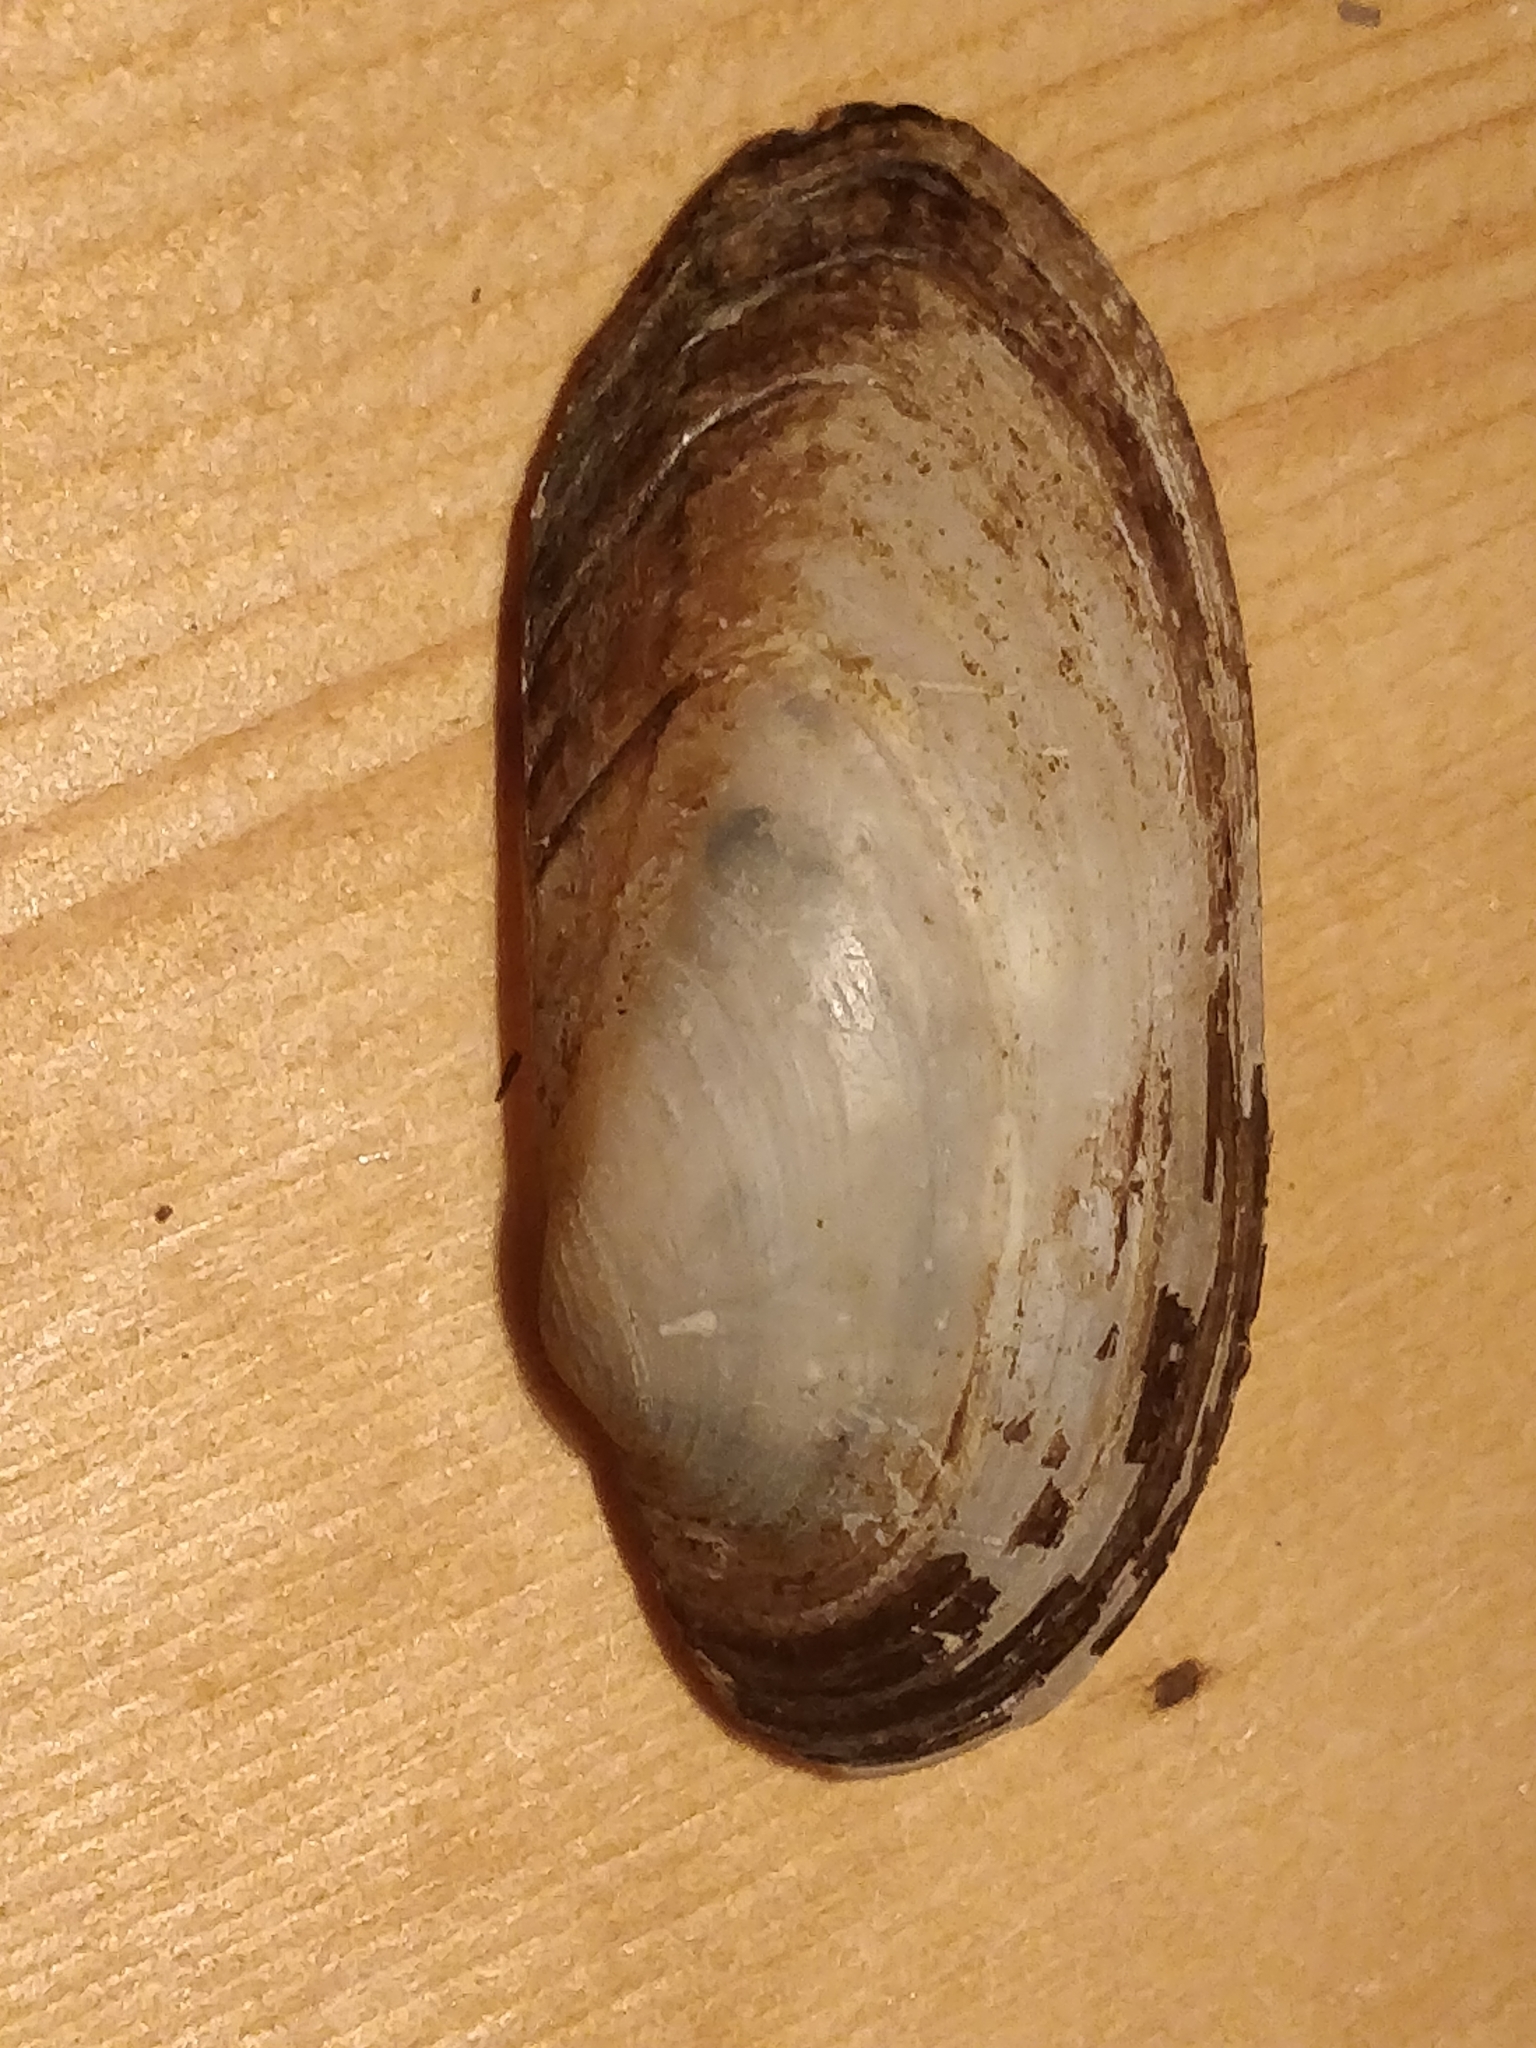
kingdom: Animalia
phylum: Mollusca
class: Bivalvia
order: Unionida
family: Unionidae
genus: Lampsilis
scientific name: Lampsilis siliquoidea
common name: Fatmucket
